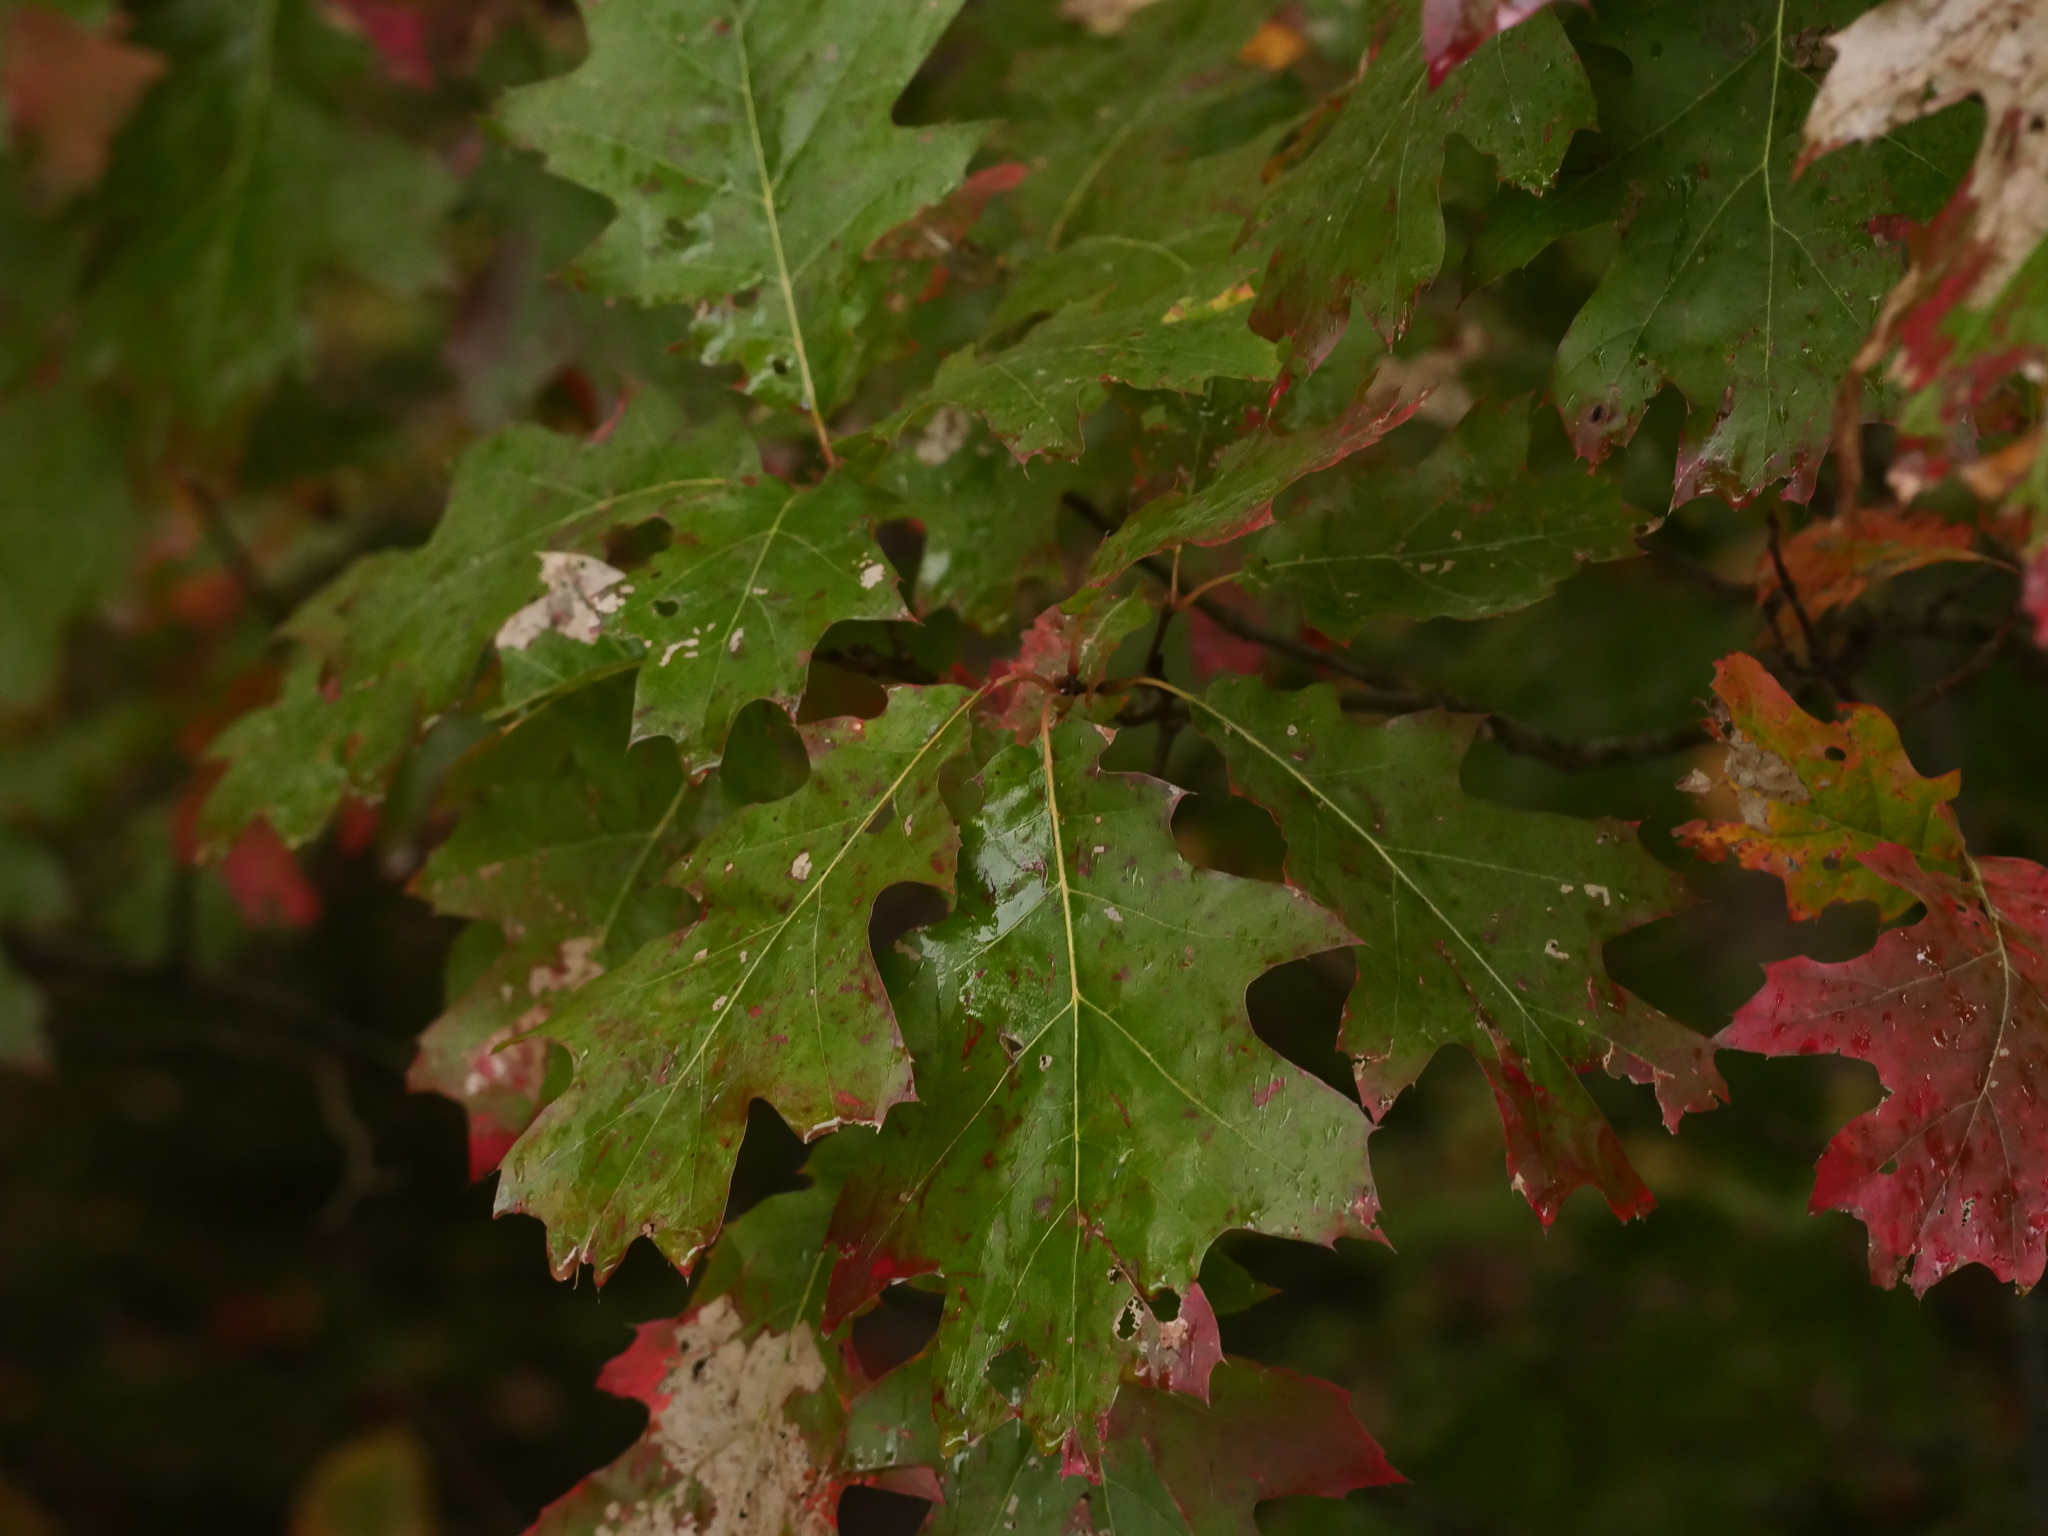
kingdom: Plantae
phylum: Tracheophyta
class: Magnoliopsida
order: Fagales
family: Fagaceae
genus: Quercus
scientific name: Quercus rubra
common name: Red oak
